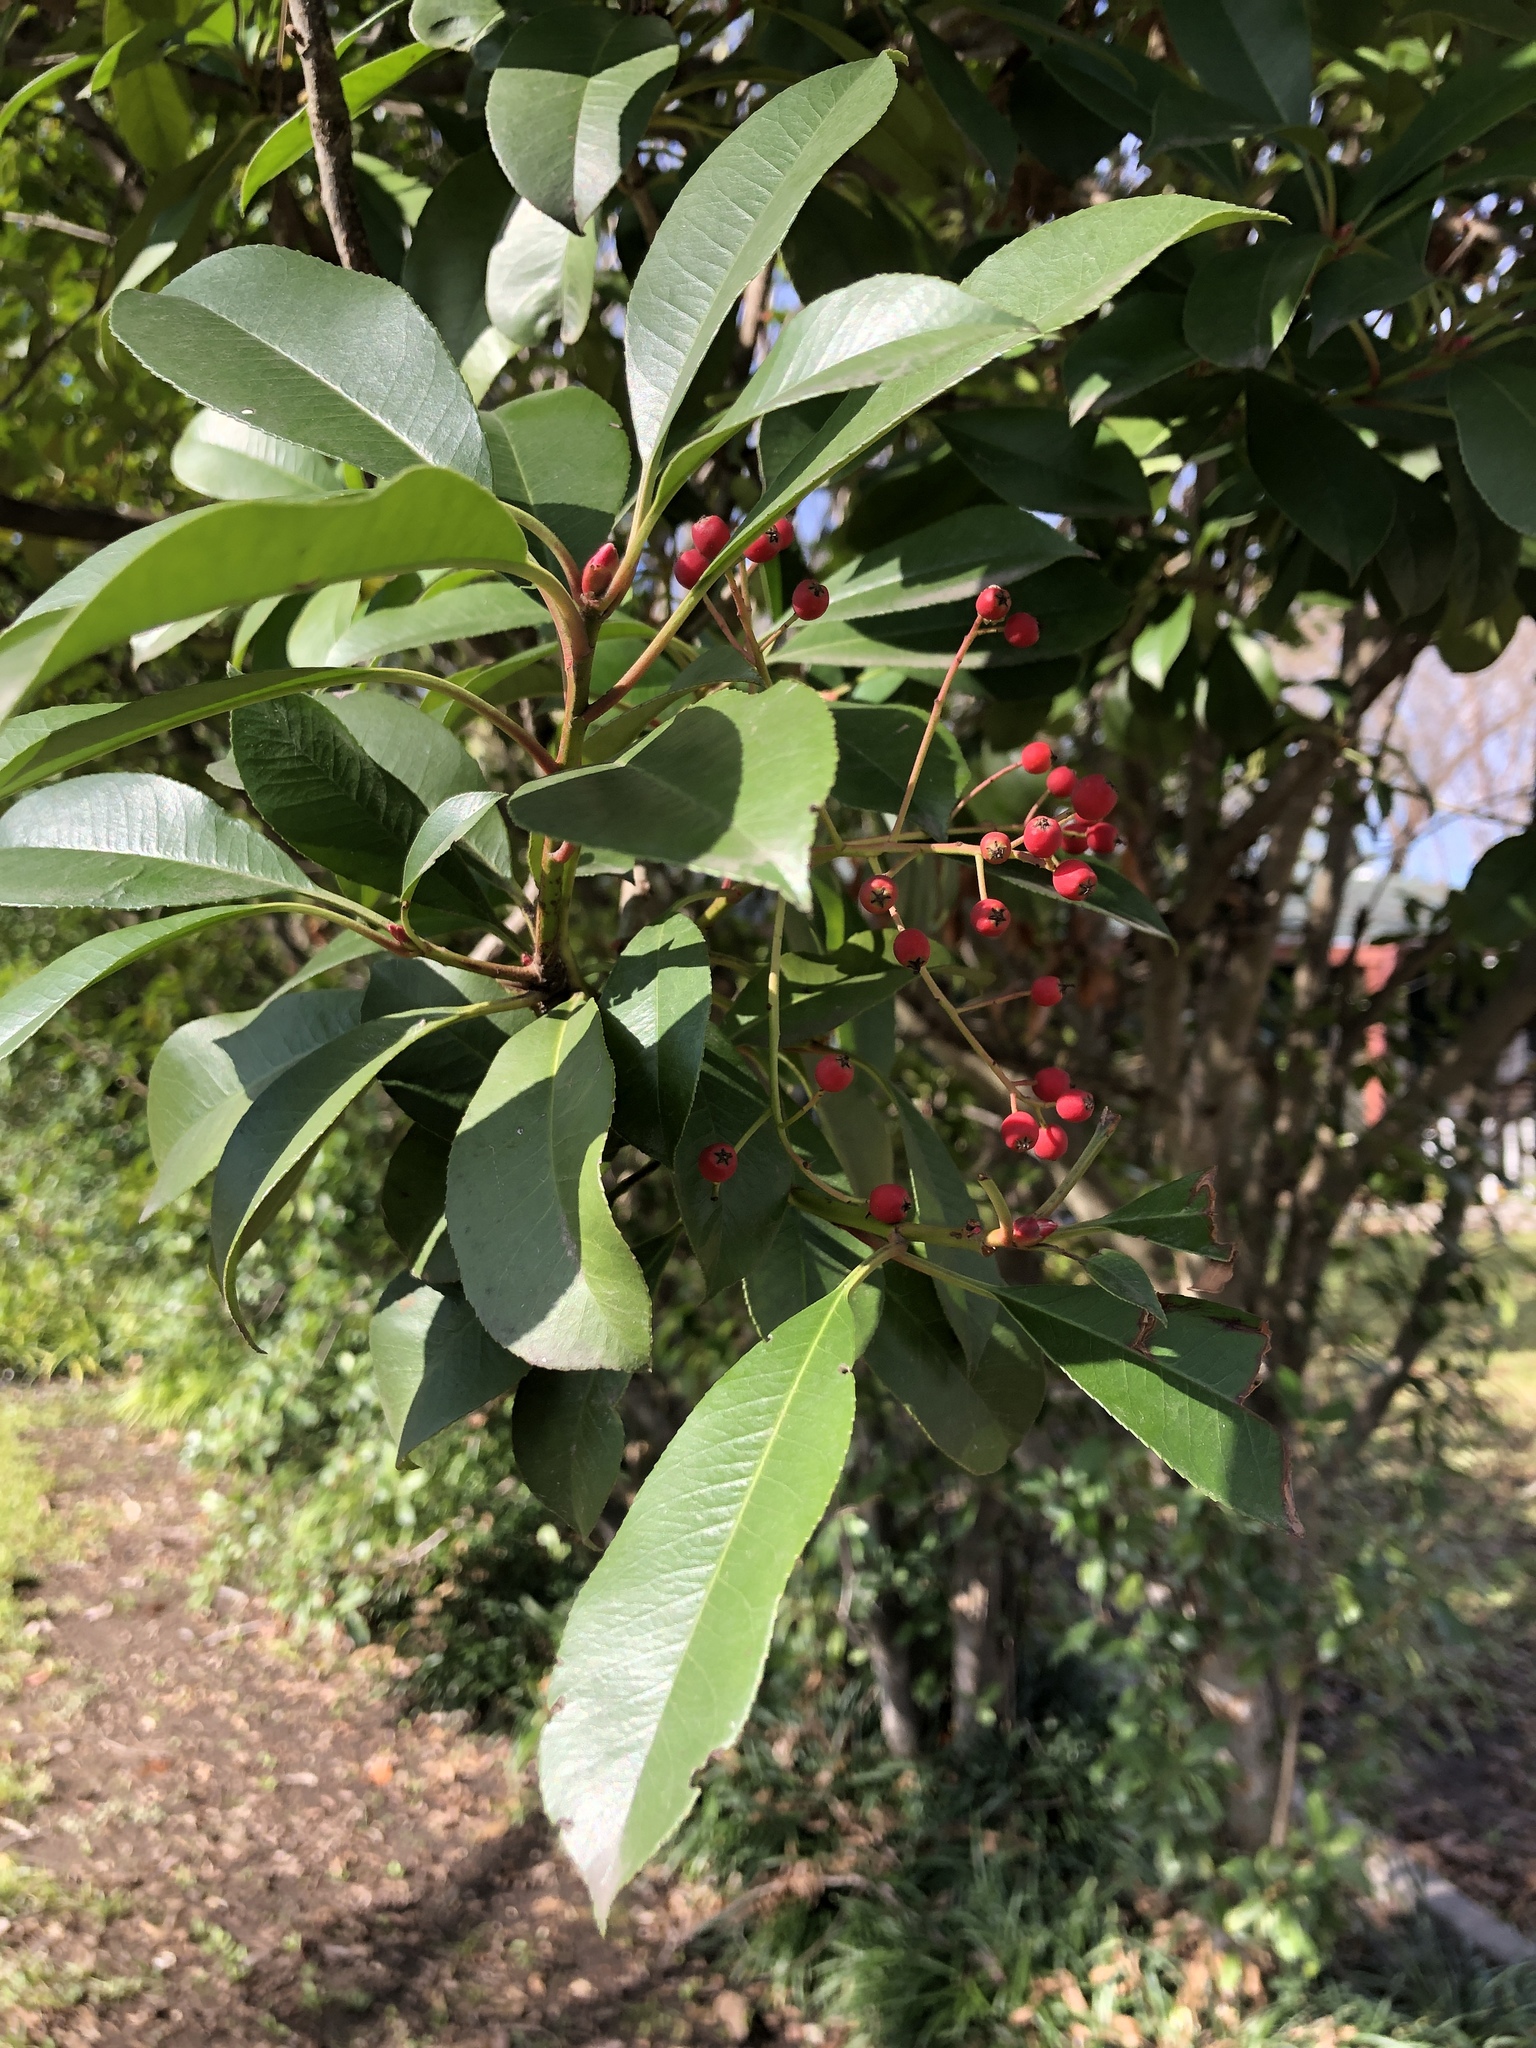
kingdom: Plantae
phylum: Tracheophyta
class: Magnoliopsida
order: Rosales
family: Rosaceae
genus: Photinia
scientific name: Photinia serratifolia
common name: Taiwanese photinia
